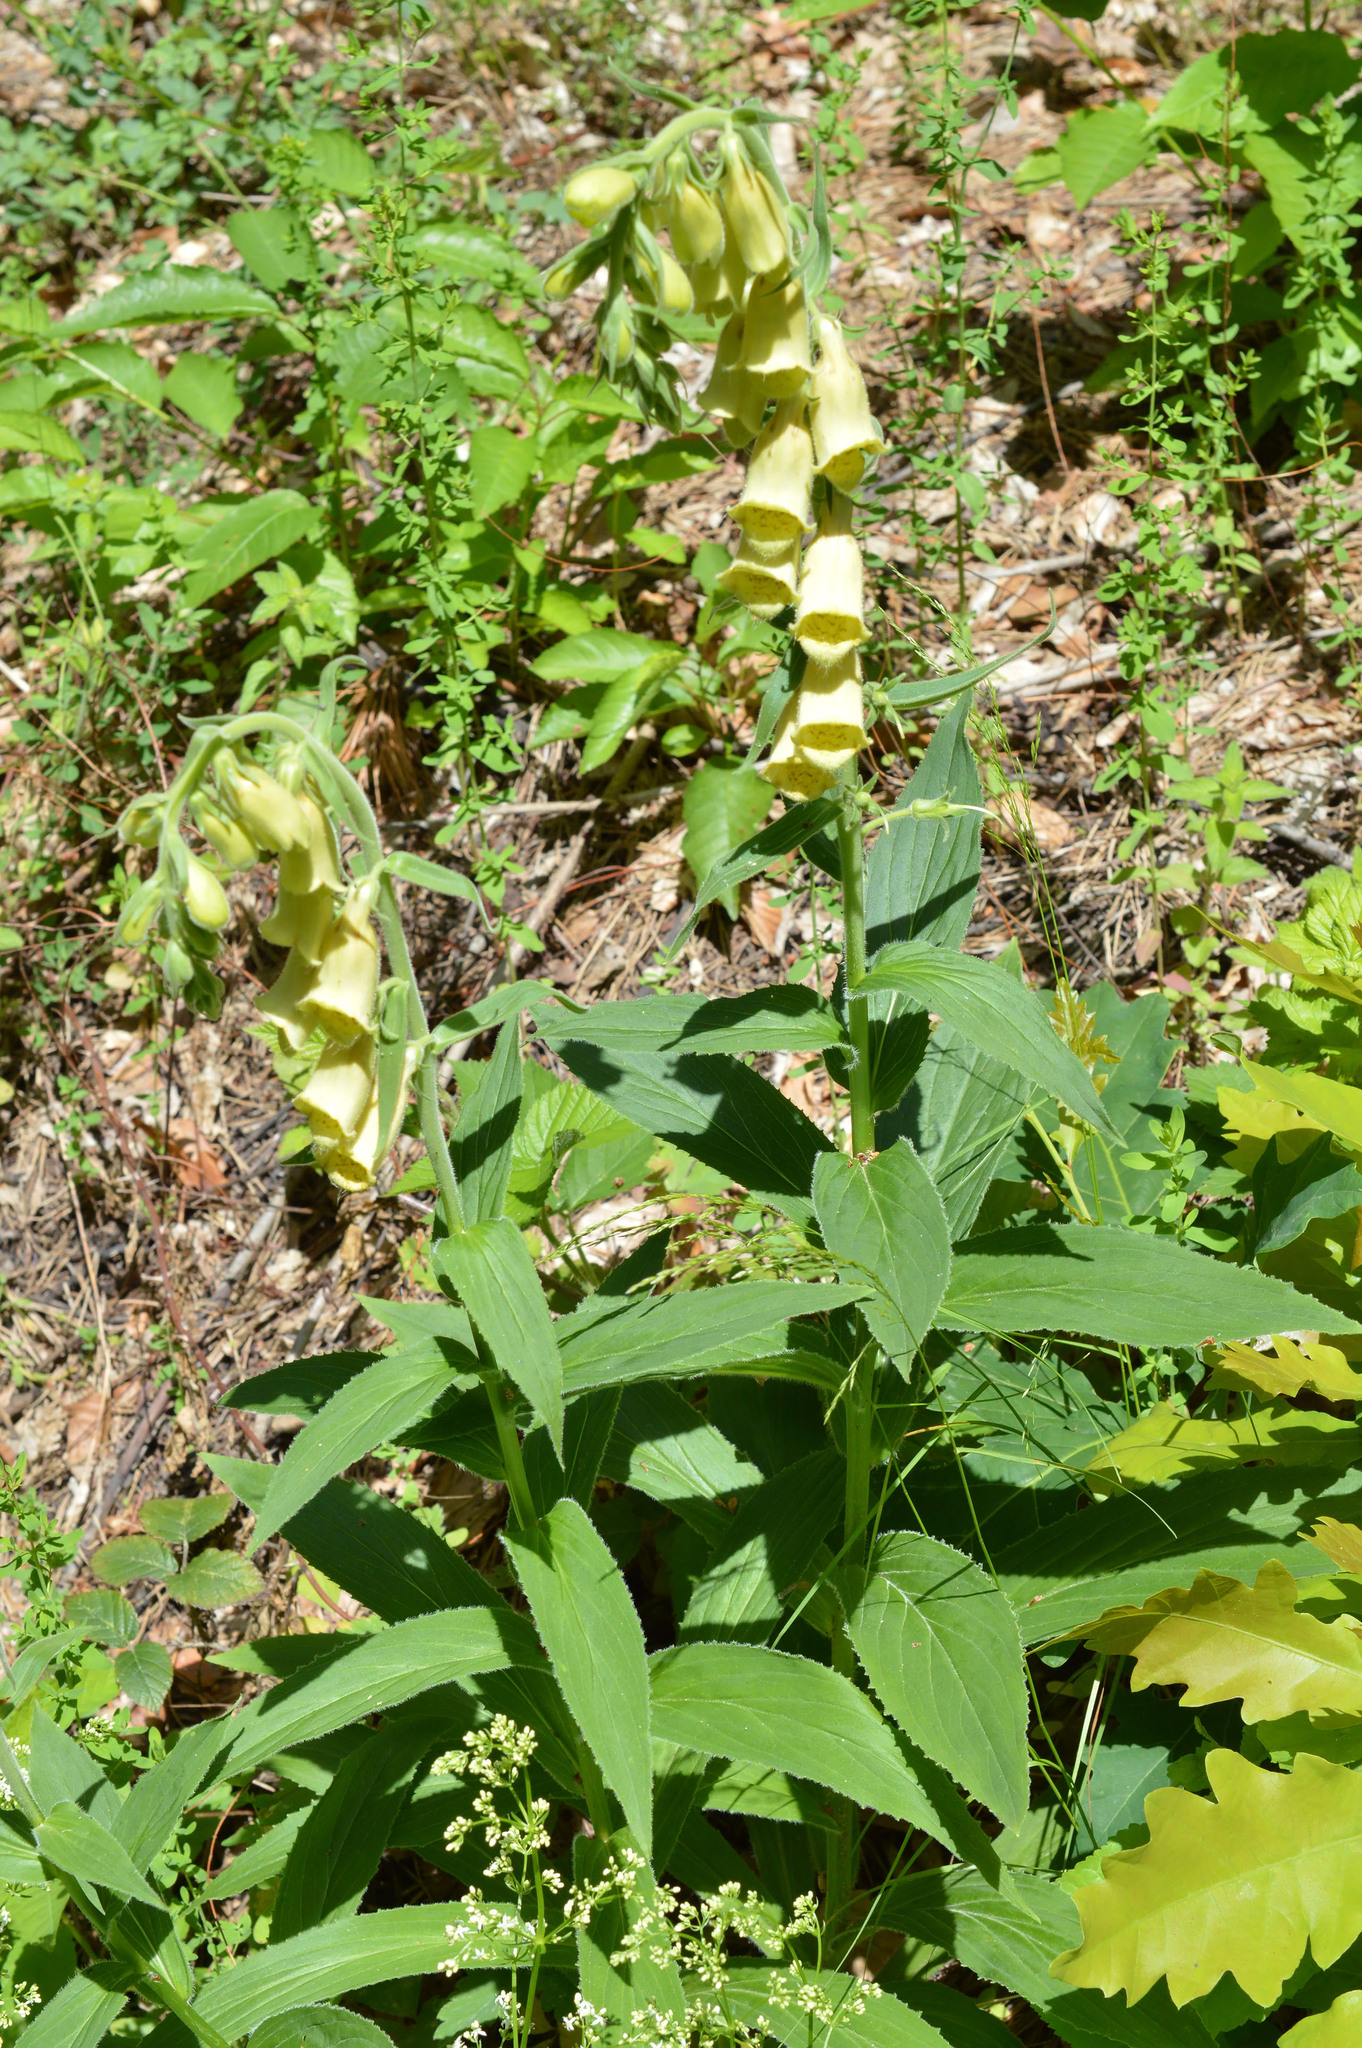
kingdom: Plantae
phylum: Tracheophyta
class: Magnoliopsida
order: Lamiales
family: Plantaginaceae
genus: Digitalis
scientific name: Digitalis grandiflora
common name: Yellow foxglove
